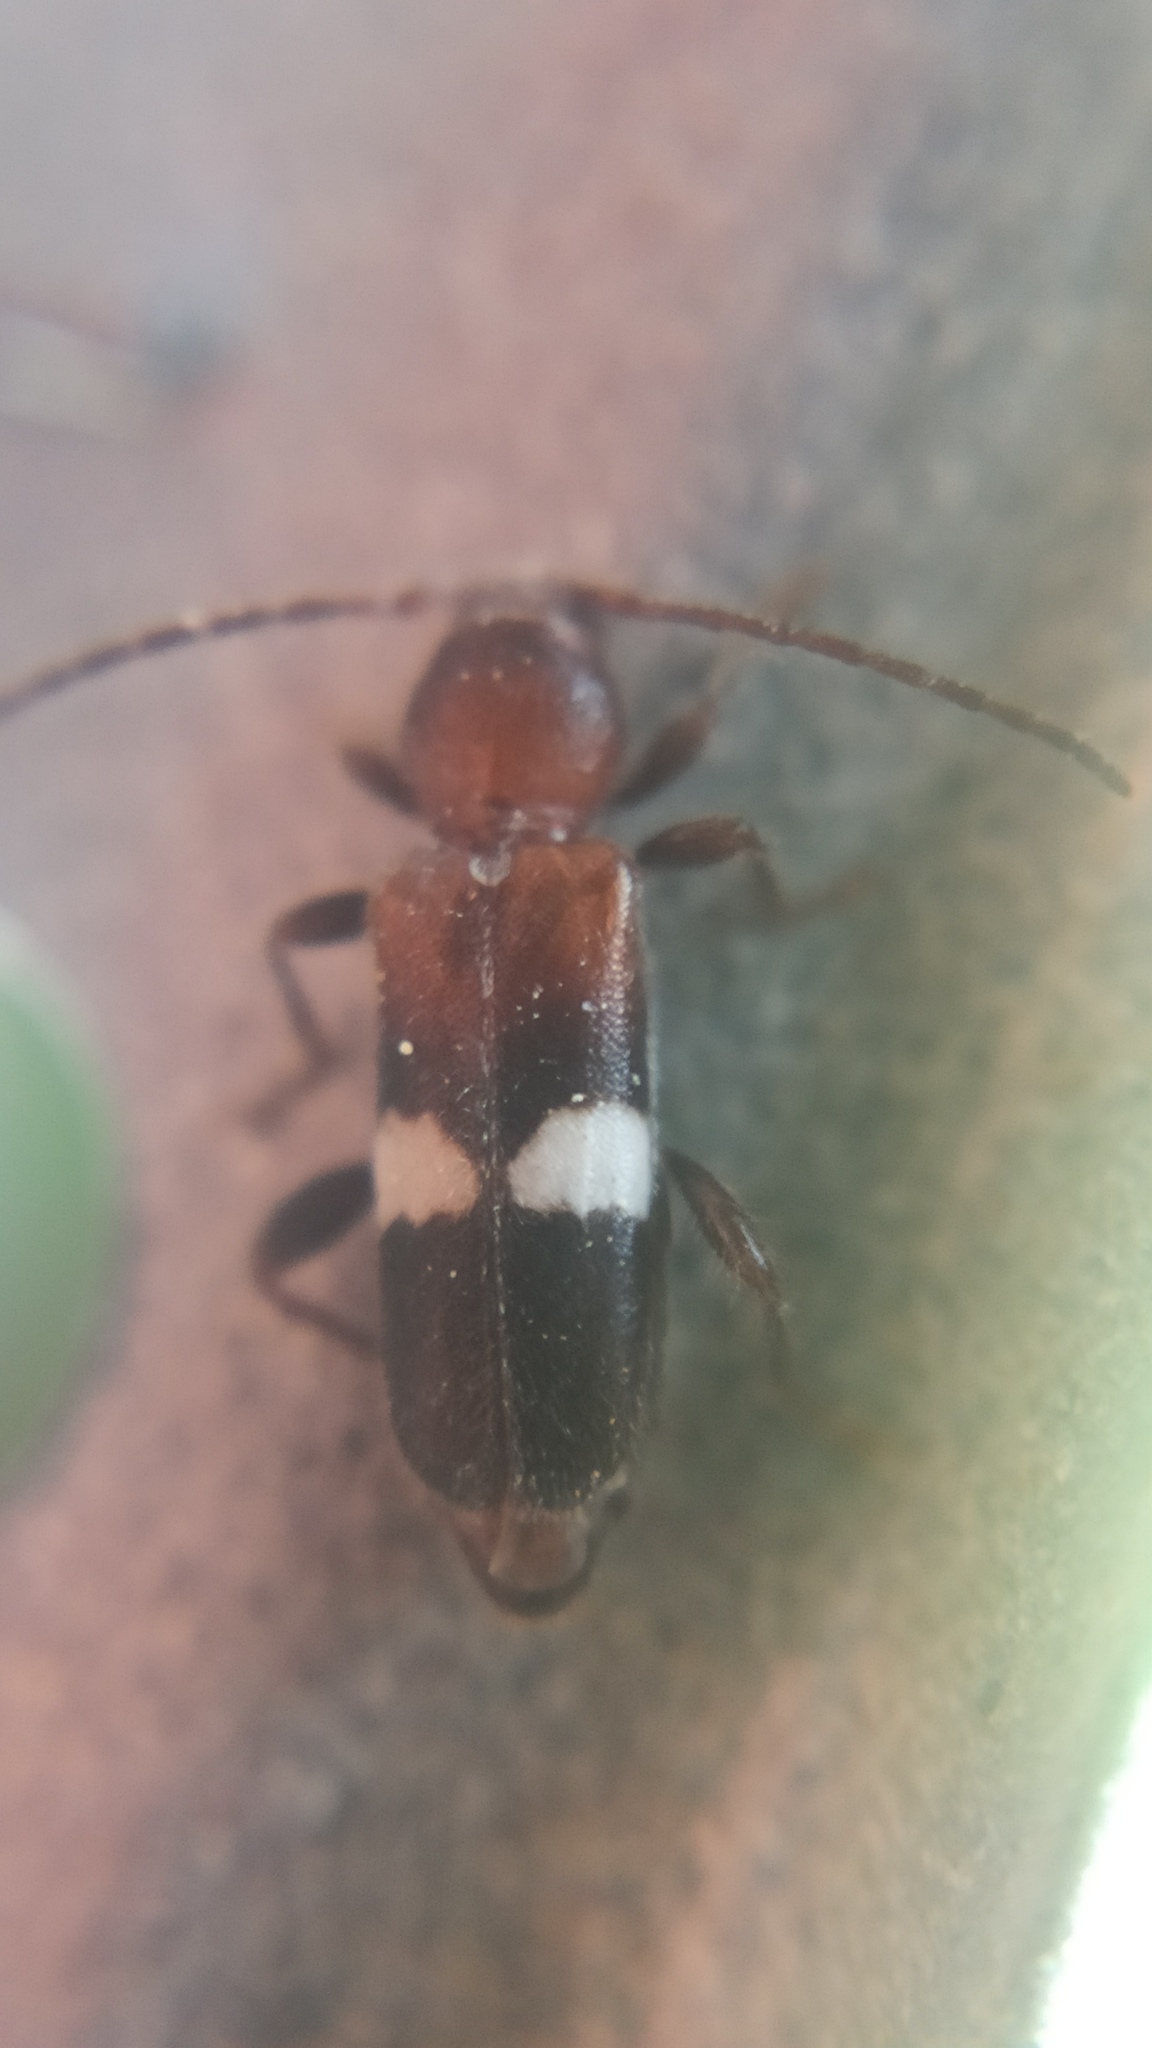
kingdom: Animalia
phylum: Arthropoda
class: Insecta
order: Coleoptera
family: Cerambycidae
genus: Poecilium
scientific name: Poecilium fasciatum
